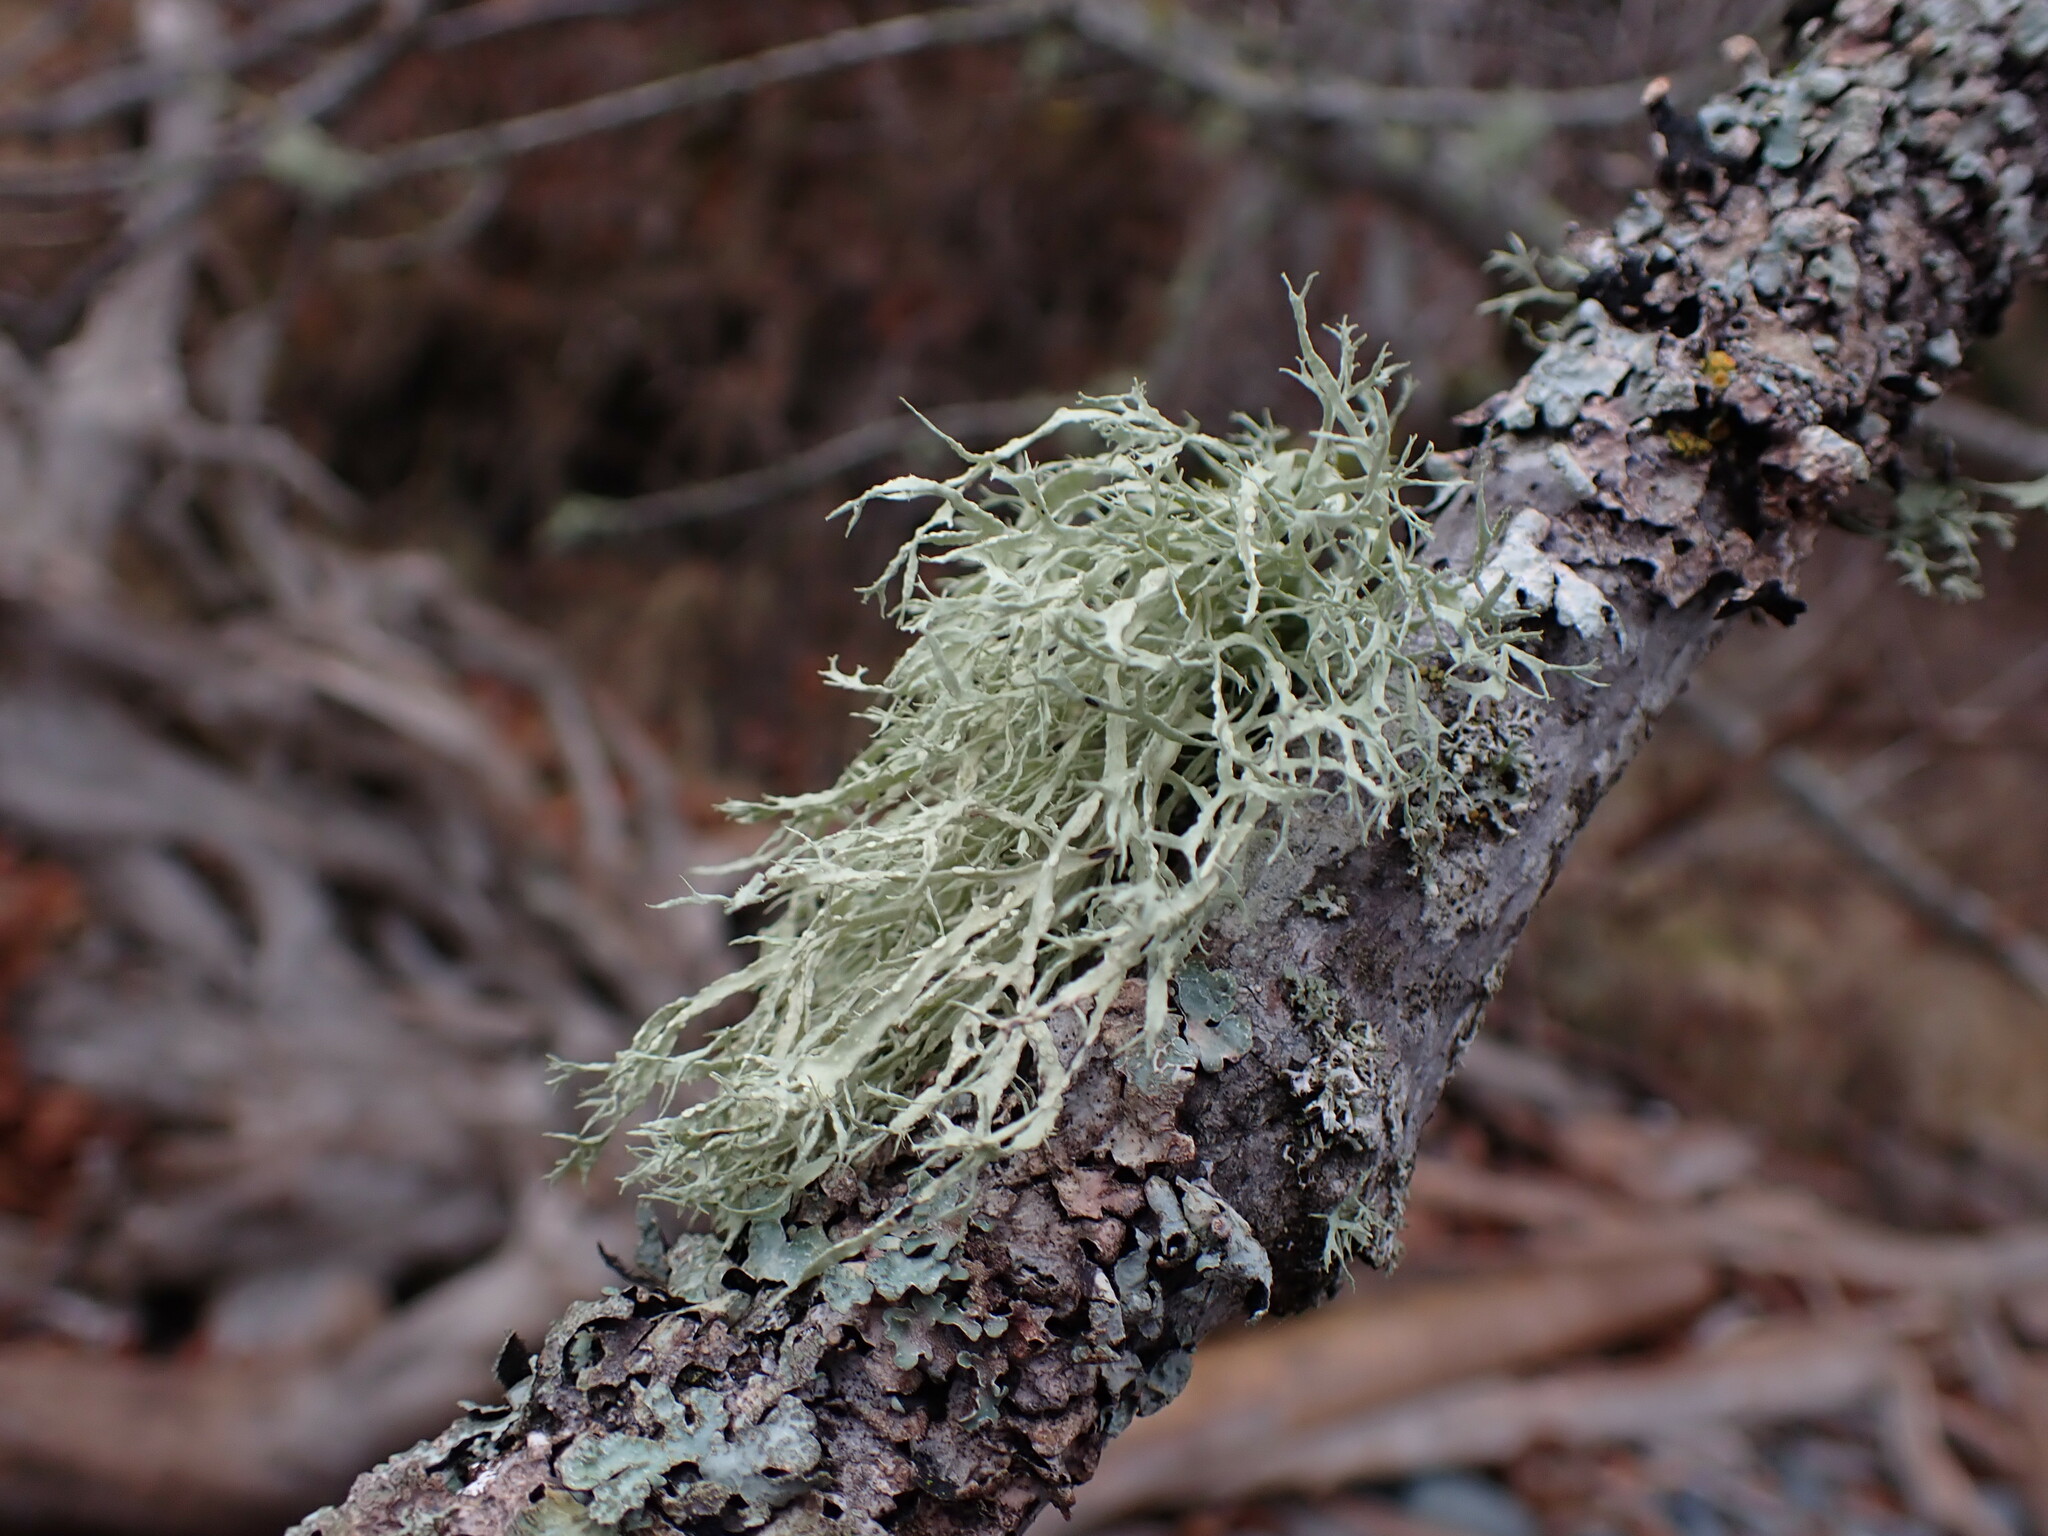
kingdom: Fungi
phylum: Ascomycota
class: Lecanoromycetes
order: Lecanorales
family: Ramalinaceae
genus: Ramalina
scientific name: Ramalina farinacea
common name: Farinose cartilage lichen
